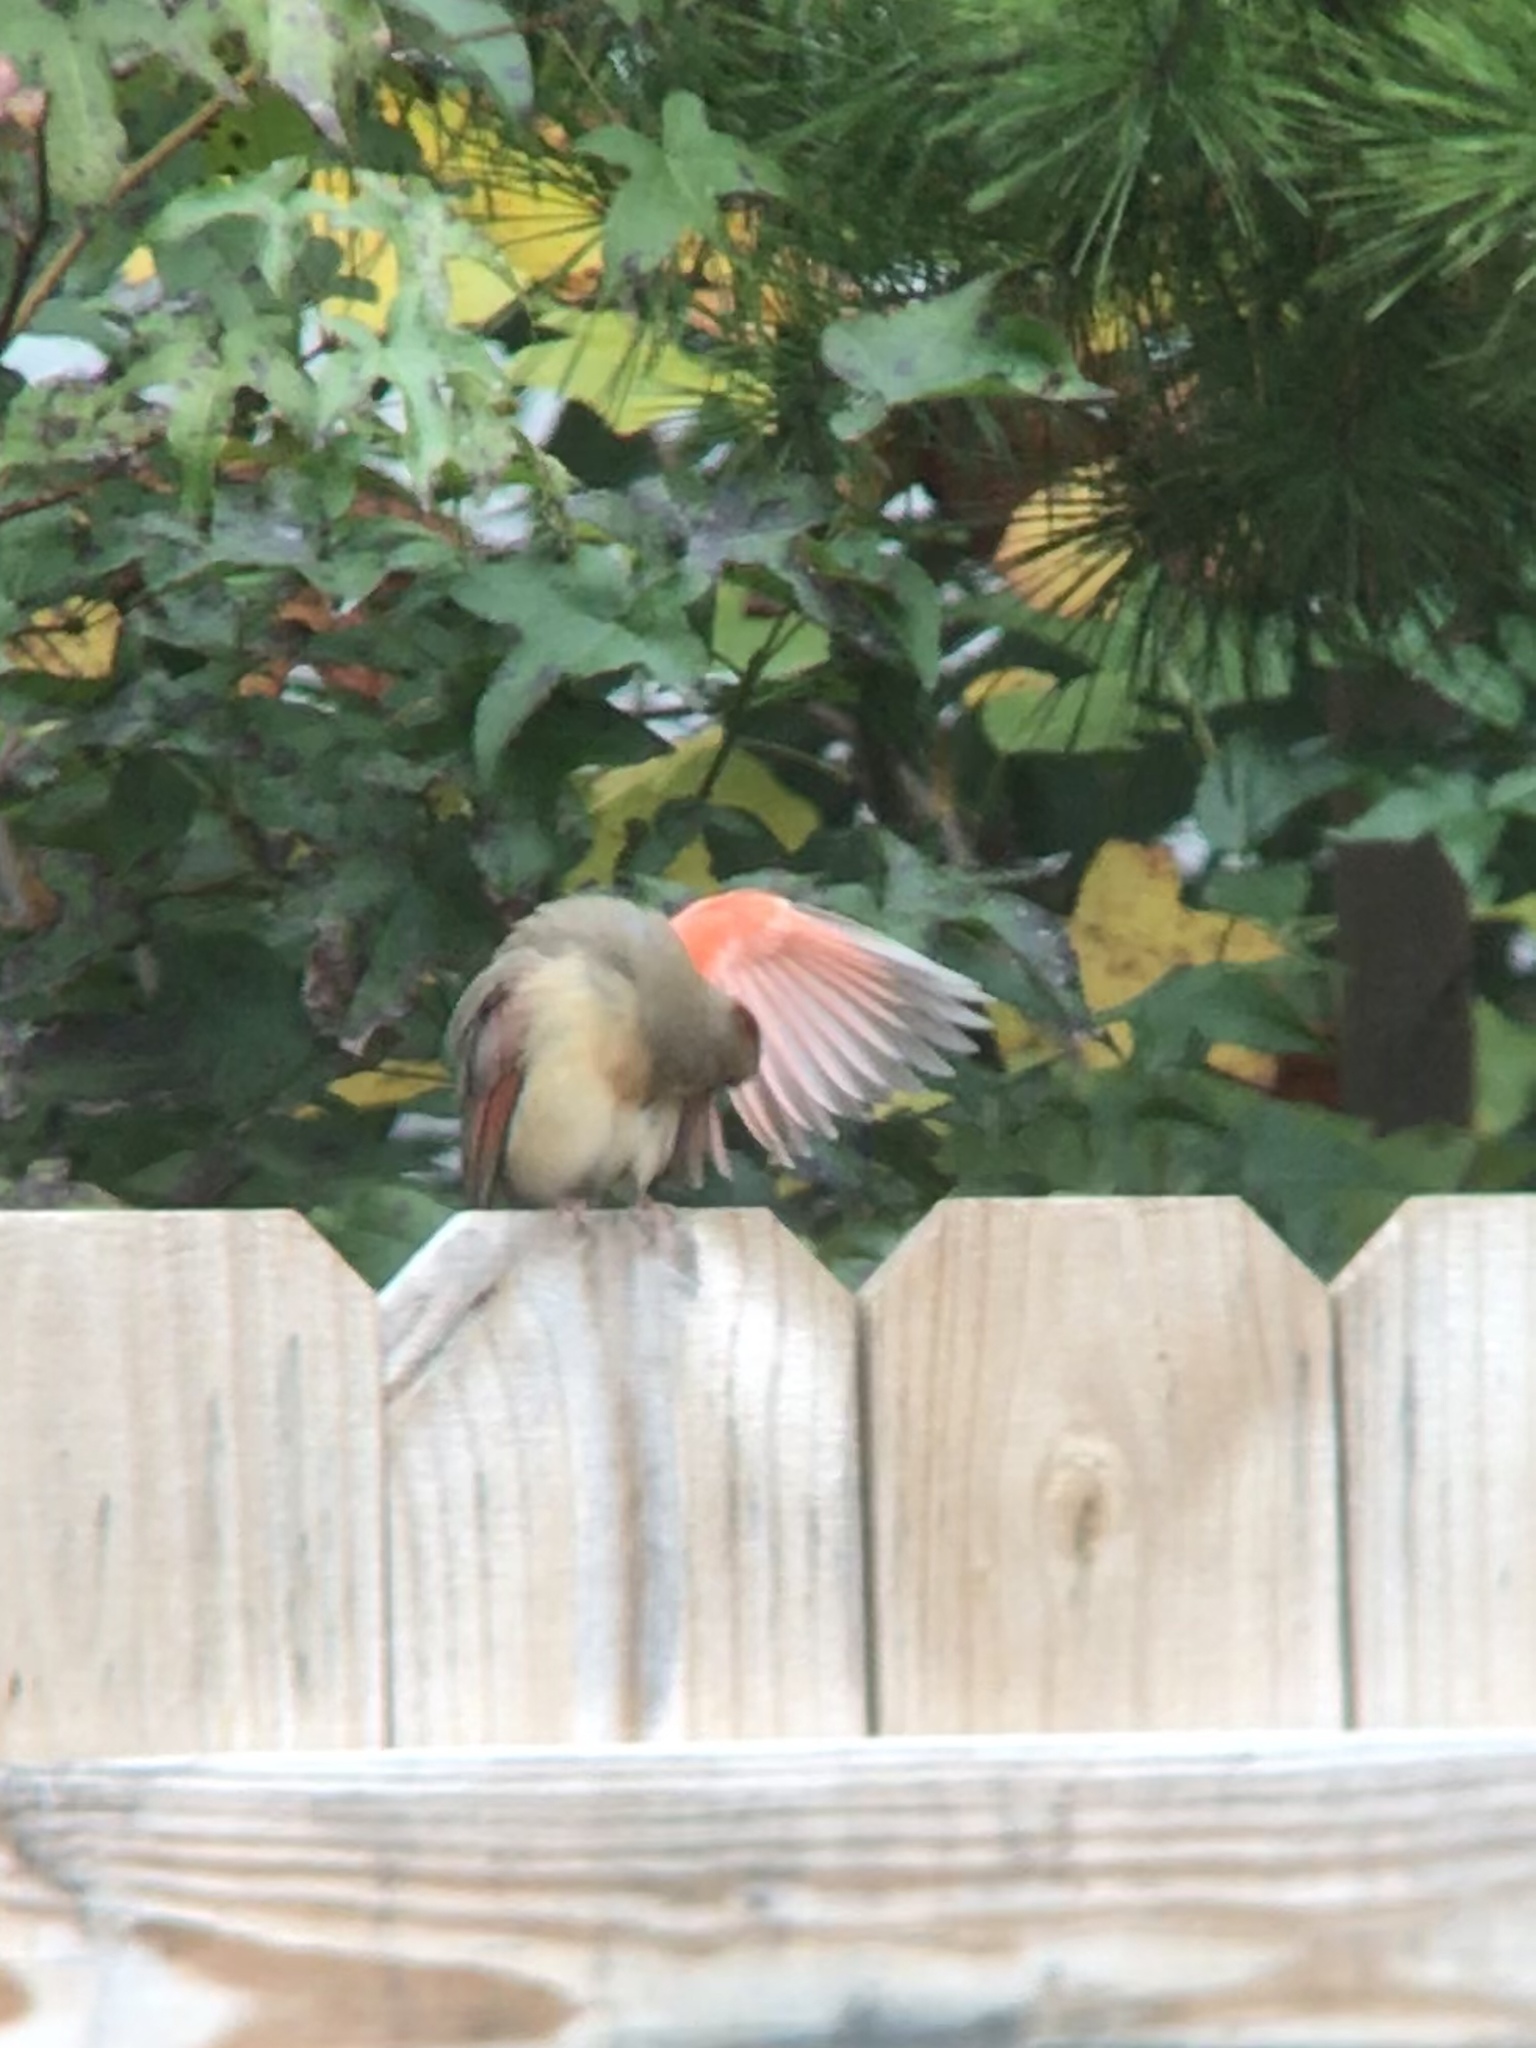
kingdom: Animalia
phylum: Chordata
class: Aves
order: Passeriformes
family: Cardinalidae
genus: Cardinalis
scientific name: Cardinalis cardinalis
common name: Northern cardinal
